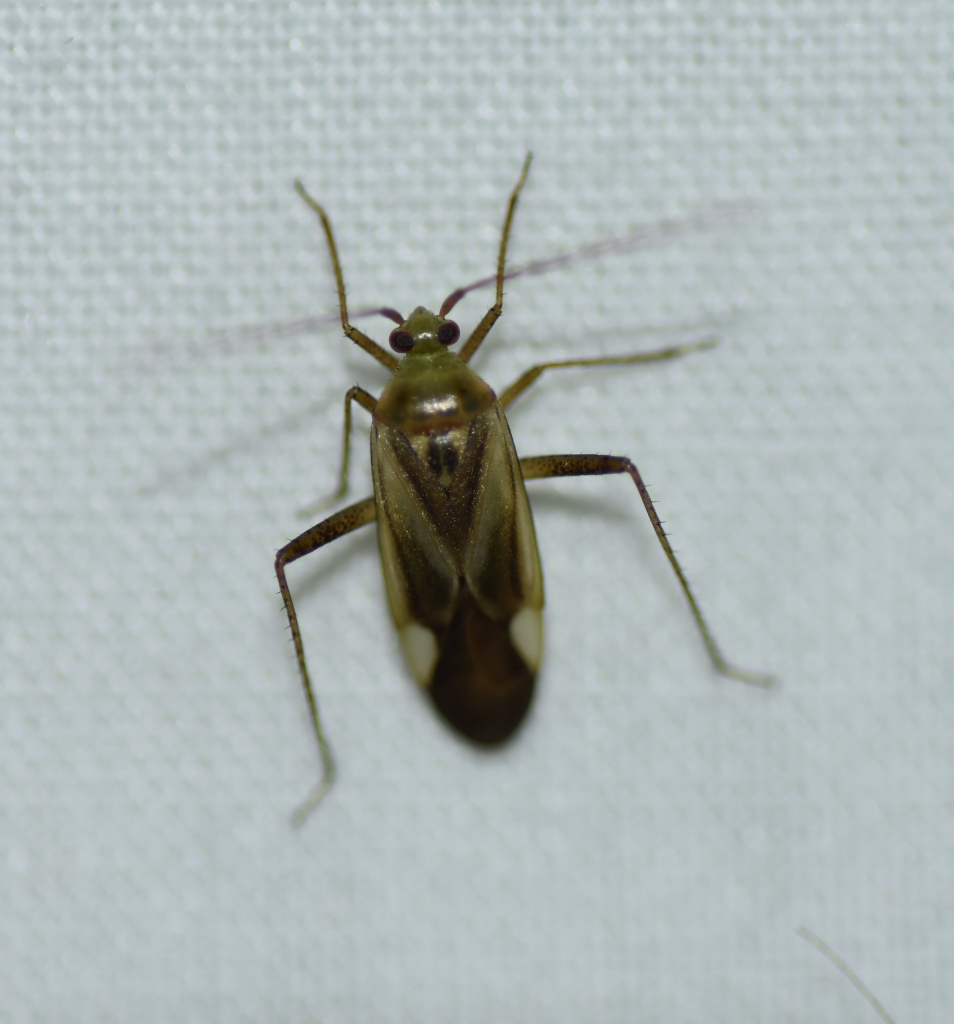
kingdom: Animalia
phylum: Arthropoda
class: Insecta
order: Hemiptera
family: Miridae
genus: Adelphocoris
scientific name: Adelphocoris lineolatus
